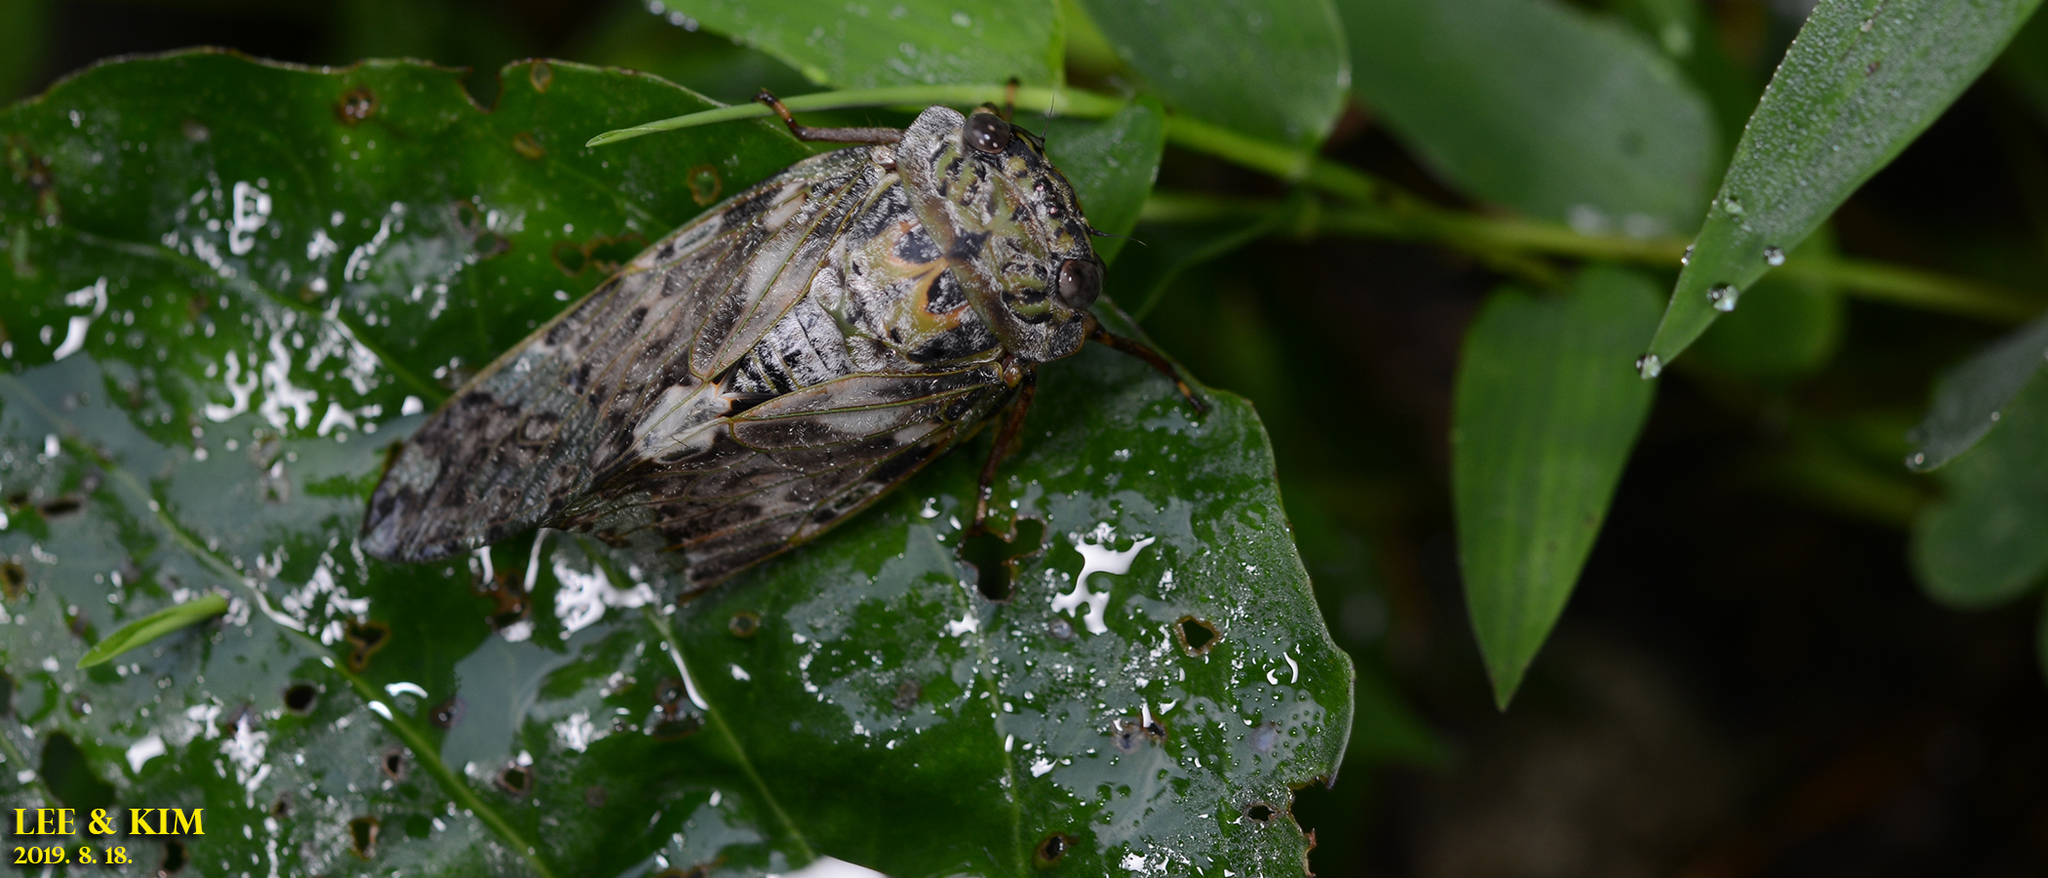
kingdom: Animalia
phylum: Arthropoda
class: Insecta
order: Hemiptera
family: Cicadidae
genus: Platypleura
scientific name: Platypleura kaempferi
